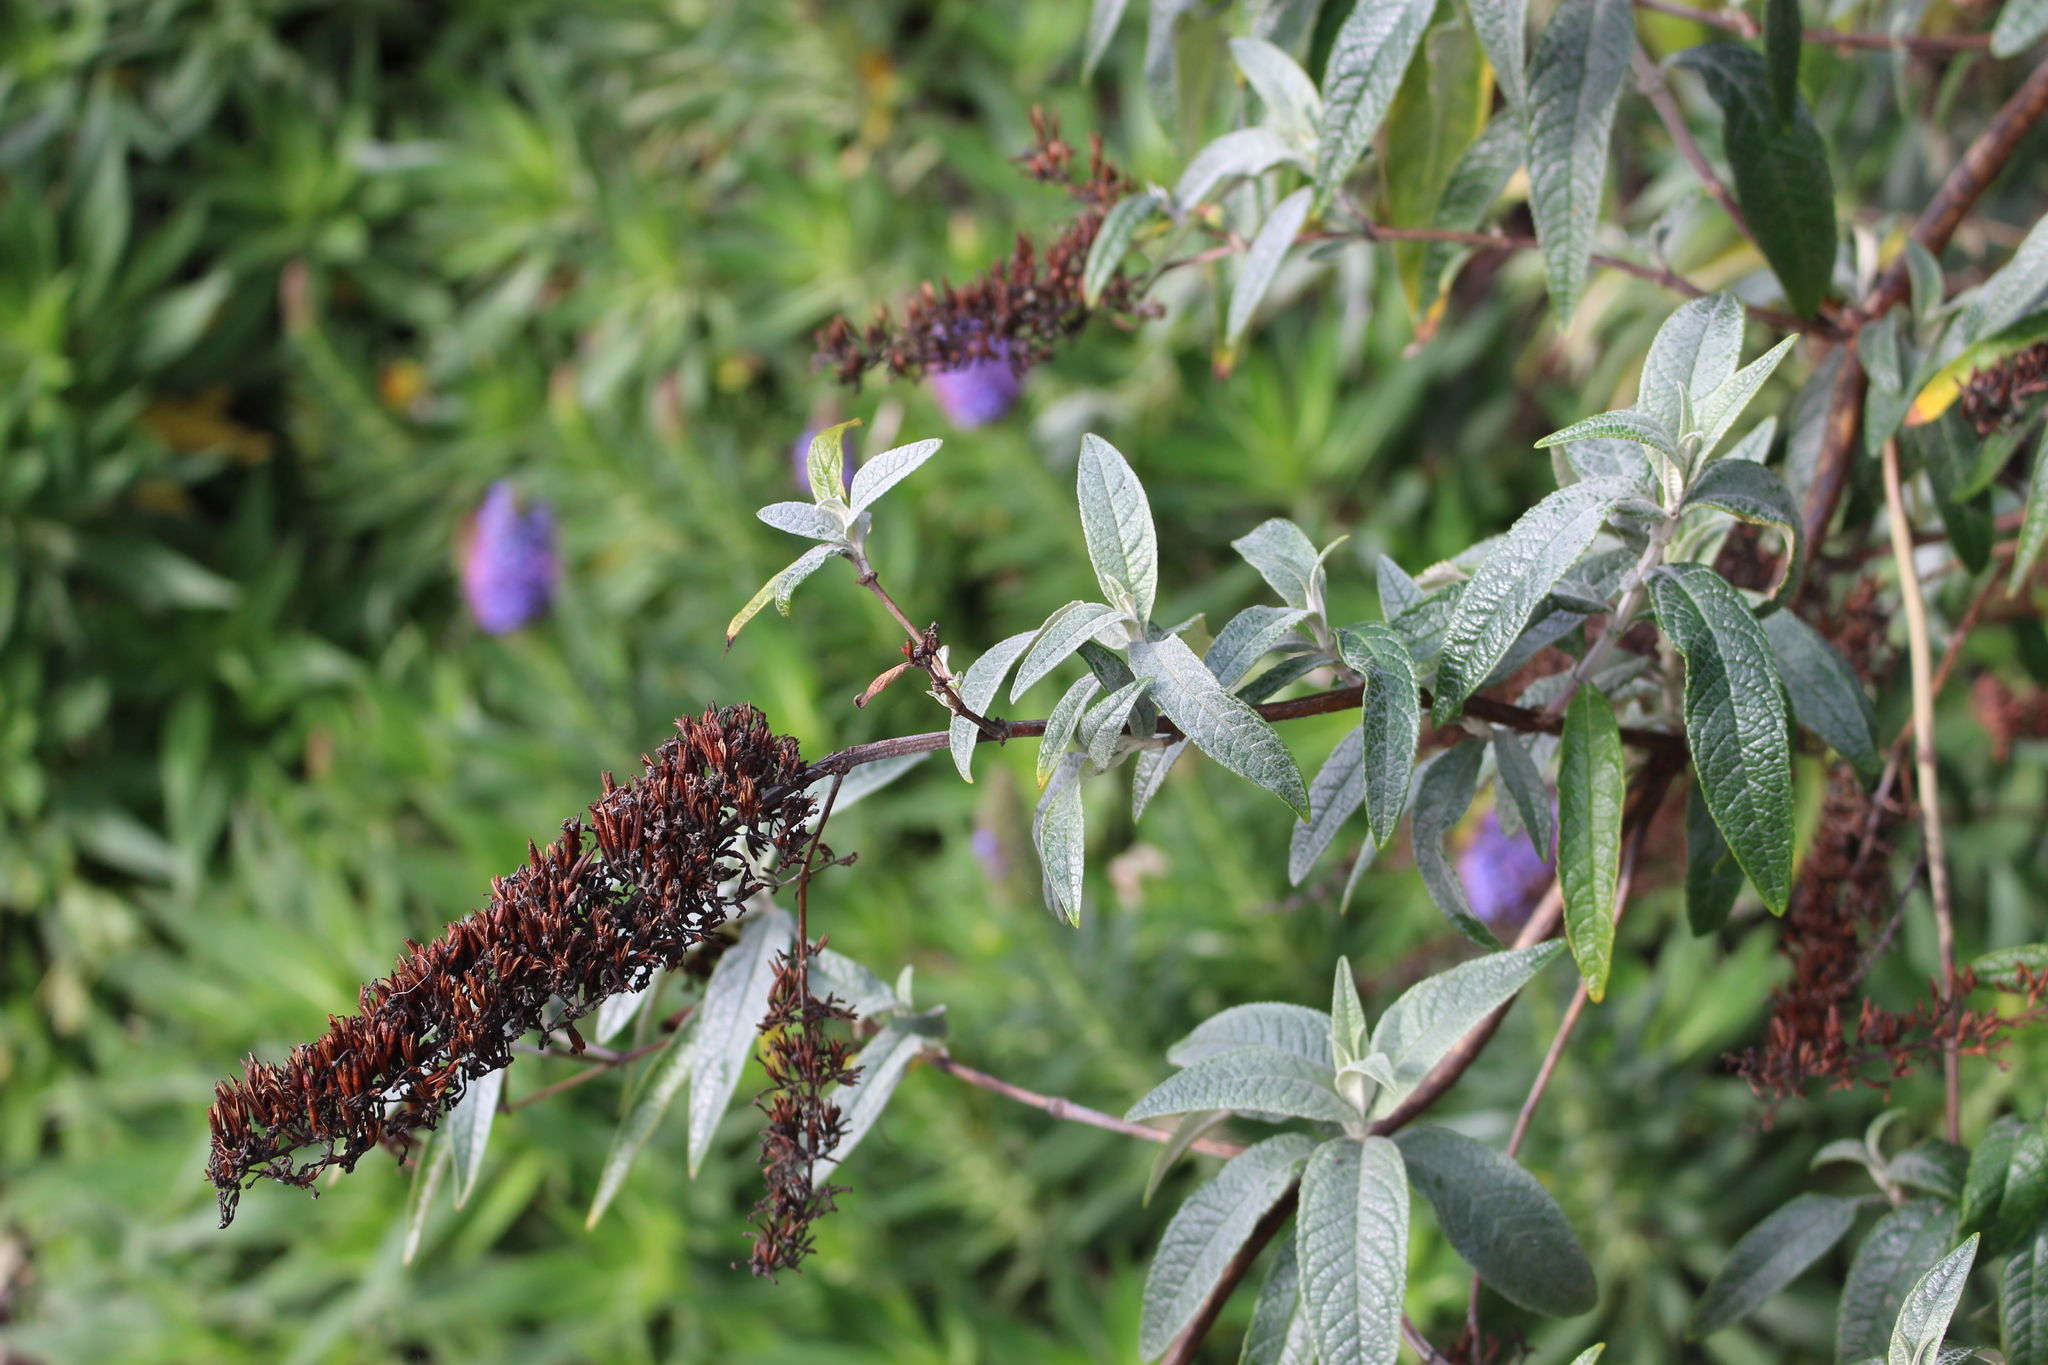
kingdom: Plantae
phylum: Tracheophyta
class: Magnoliopsida
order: Lamiales
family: Scrophulariaceae
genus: Buddleja
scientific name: Buddleja davidii
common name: Butterfly-bush
